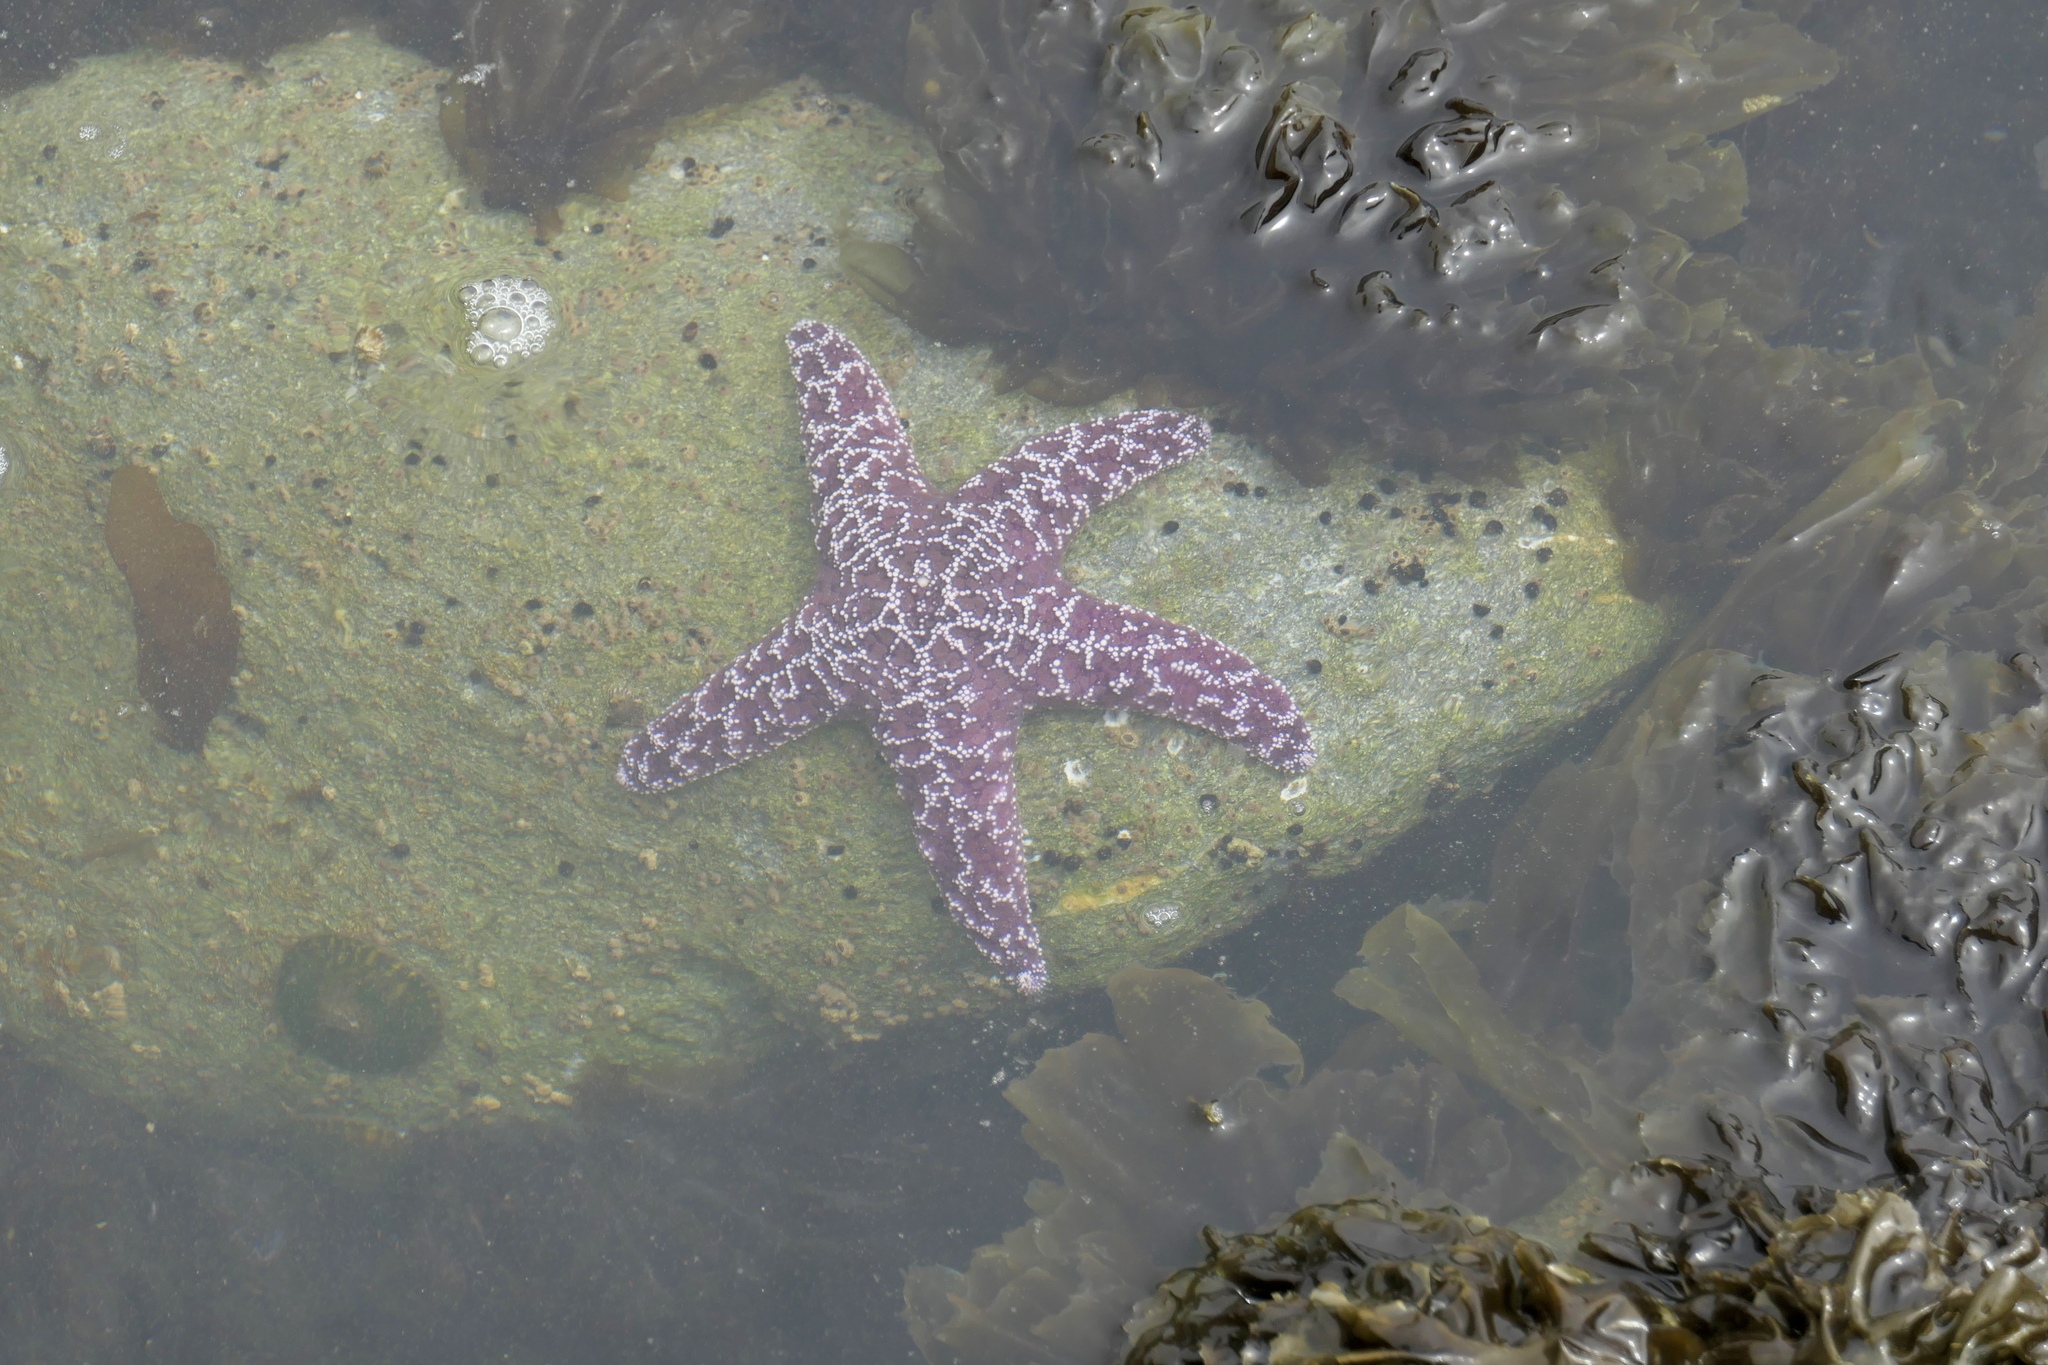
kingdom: Animalia
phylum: Echinodermata
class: Asteroidea
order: Forcipulatida
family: Asteriidae
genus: Pisaster
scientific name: Pisaster ochraceus
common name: Ochre stars
